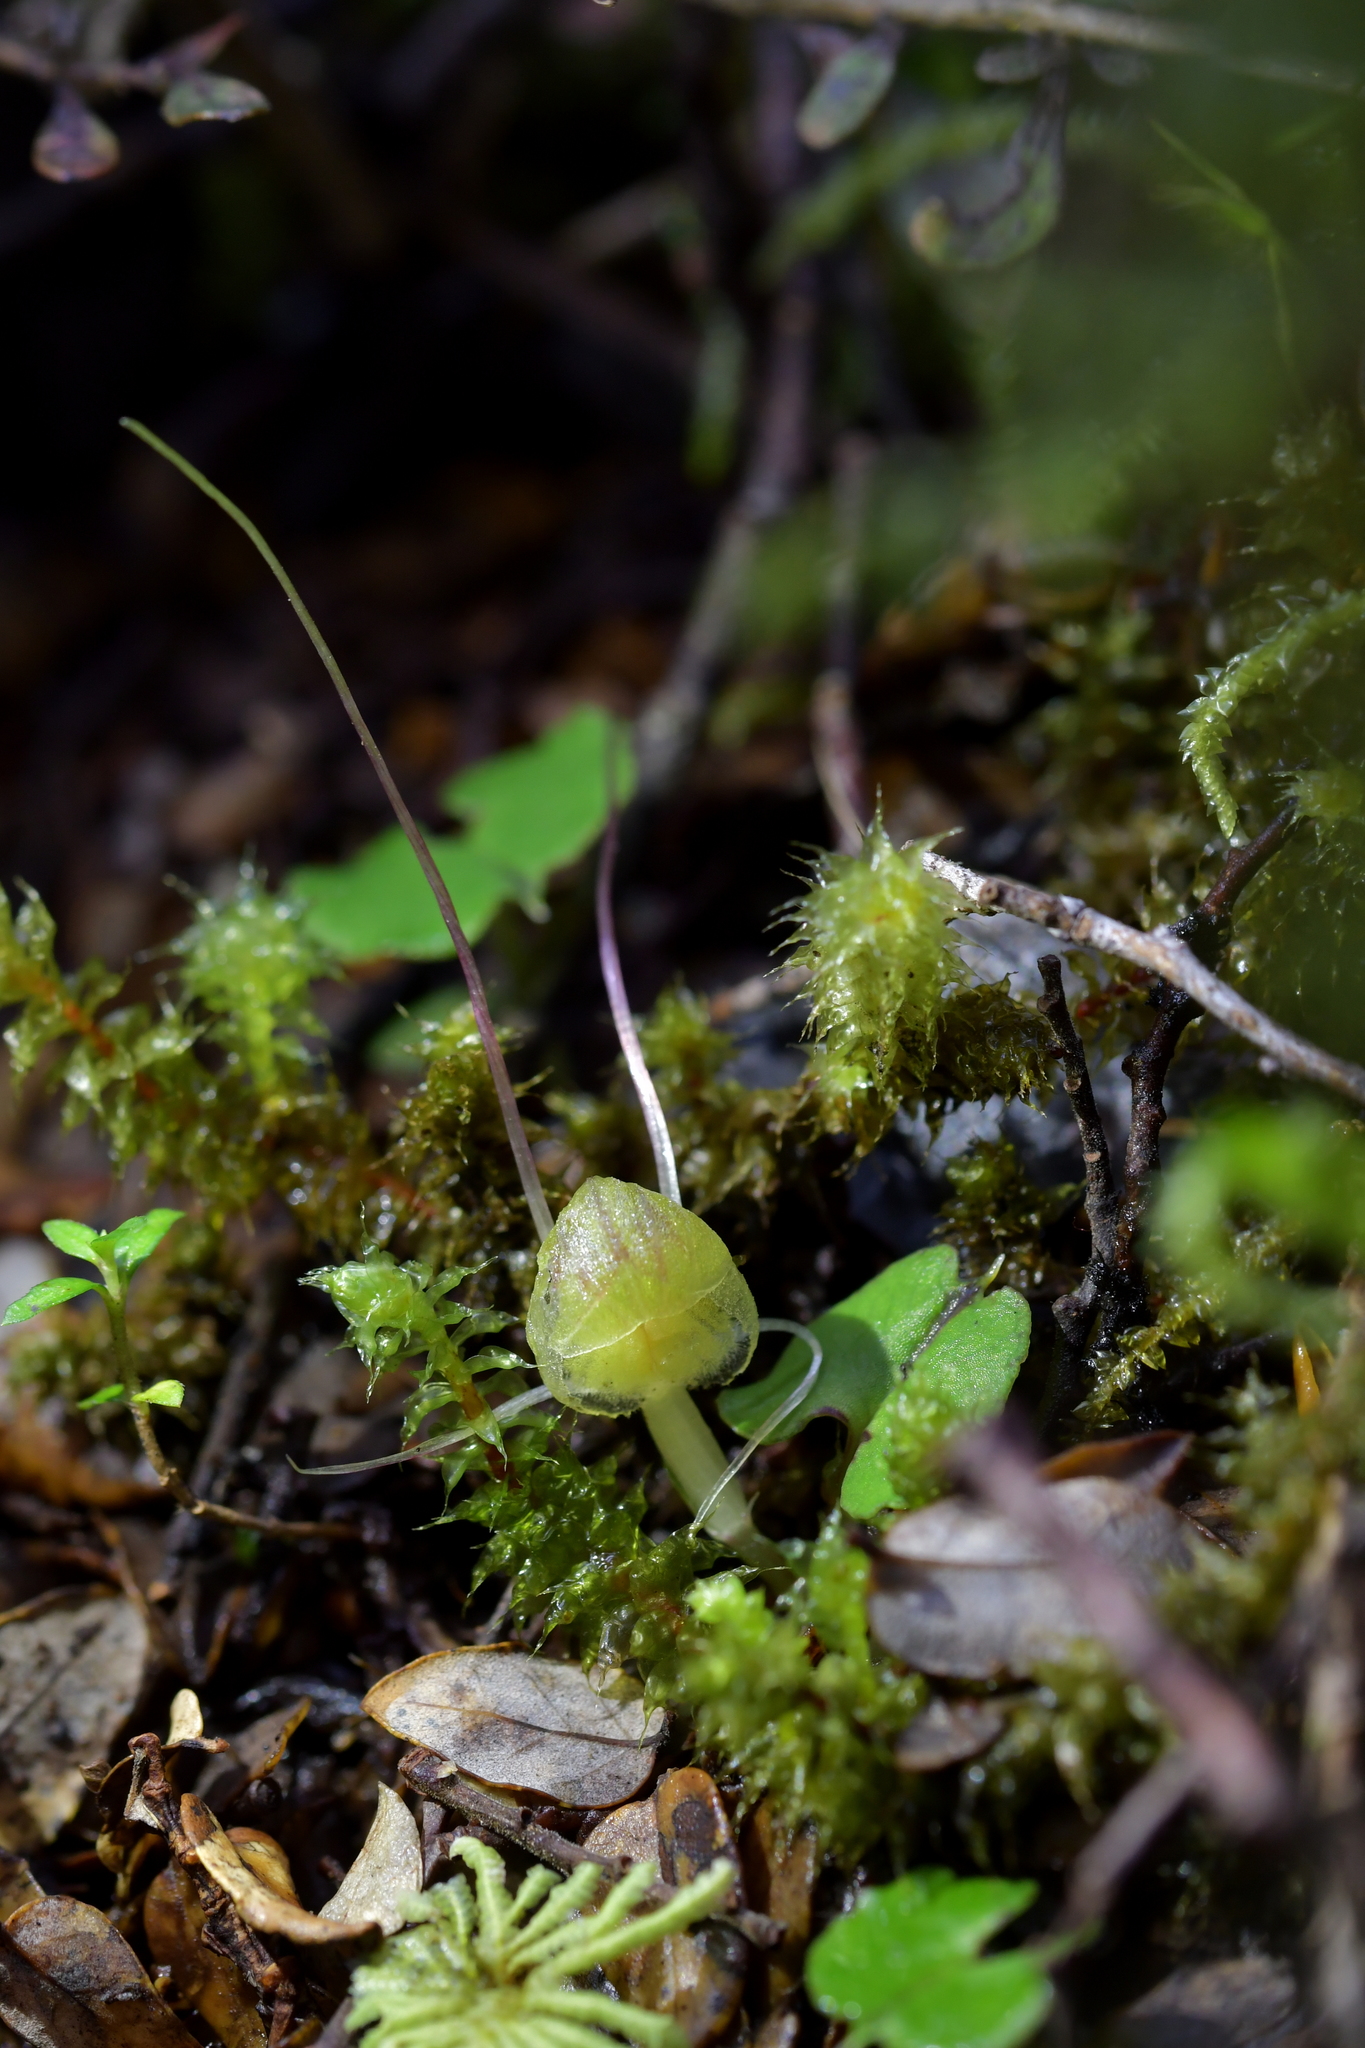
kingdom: Plantae
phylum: Tracheophyta
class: Liliopsida
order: Asparagales
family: Orchidaceae
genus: Corybas
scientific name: Corybas walliae
